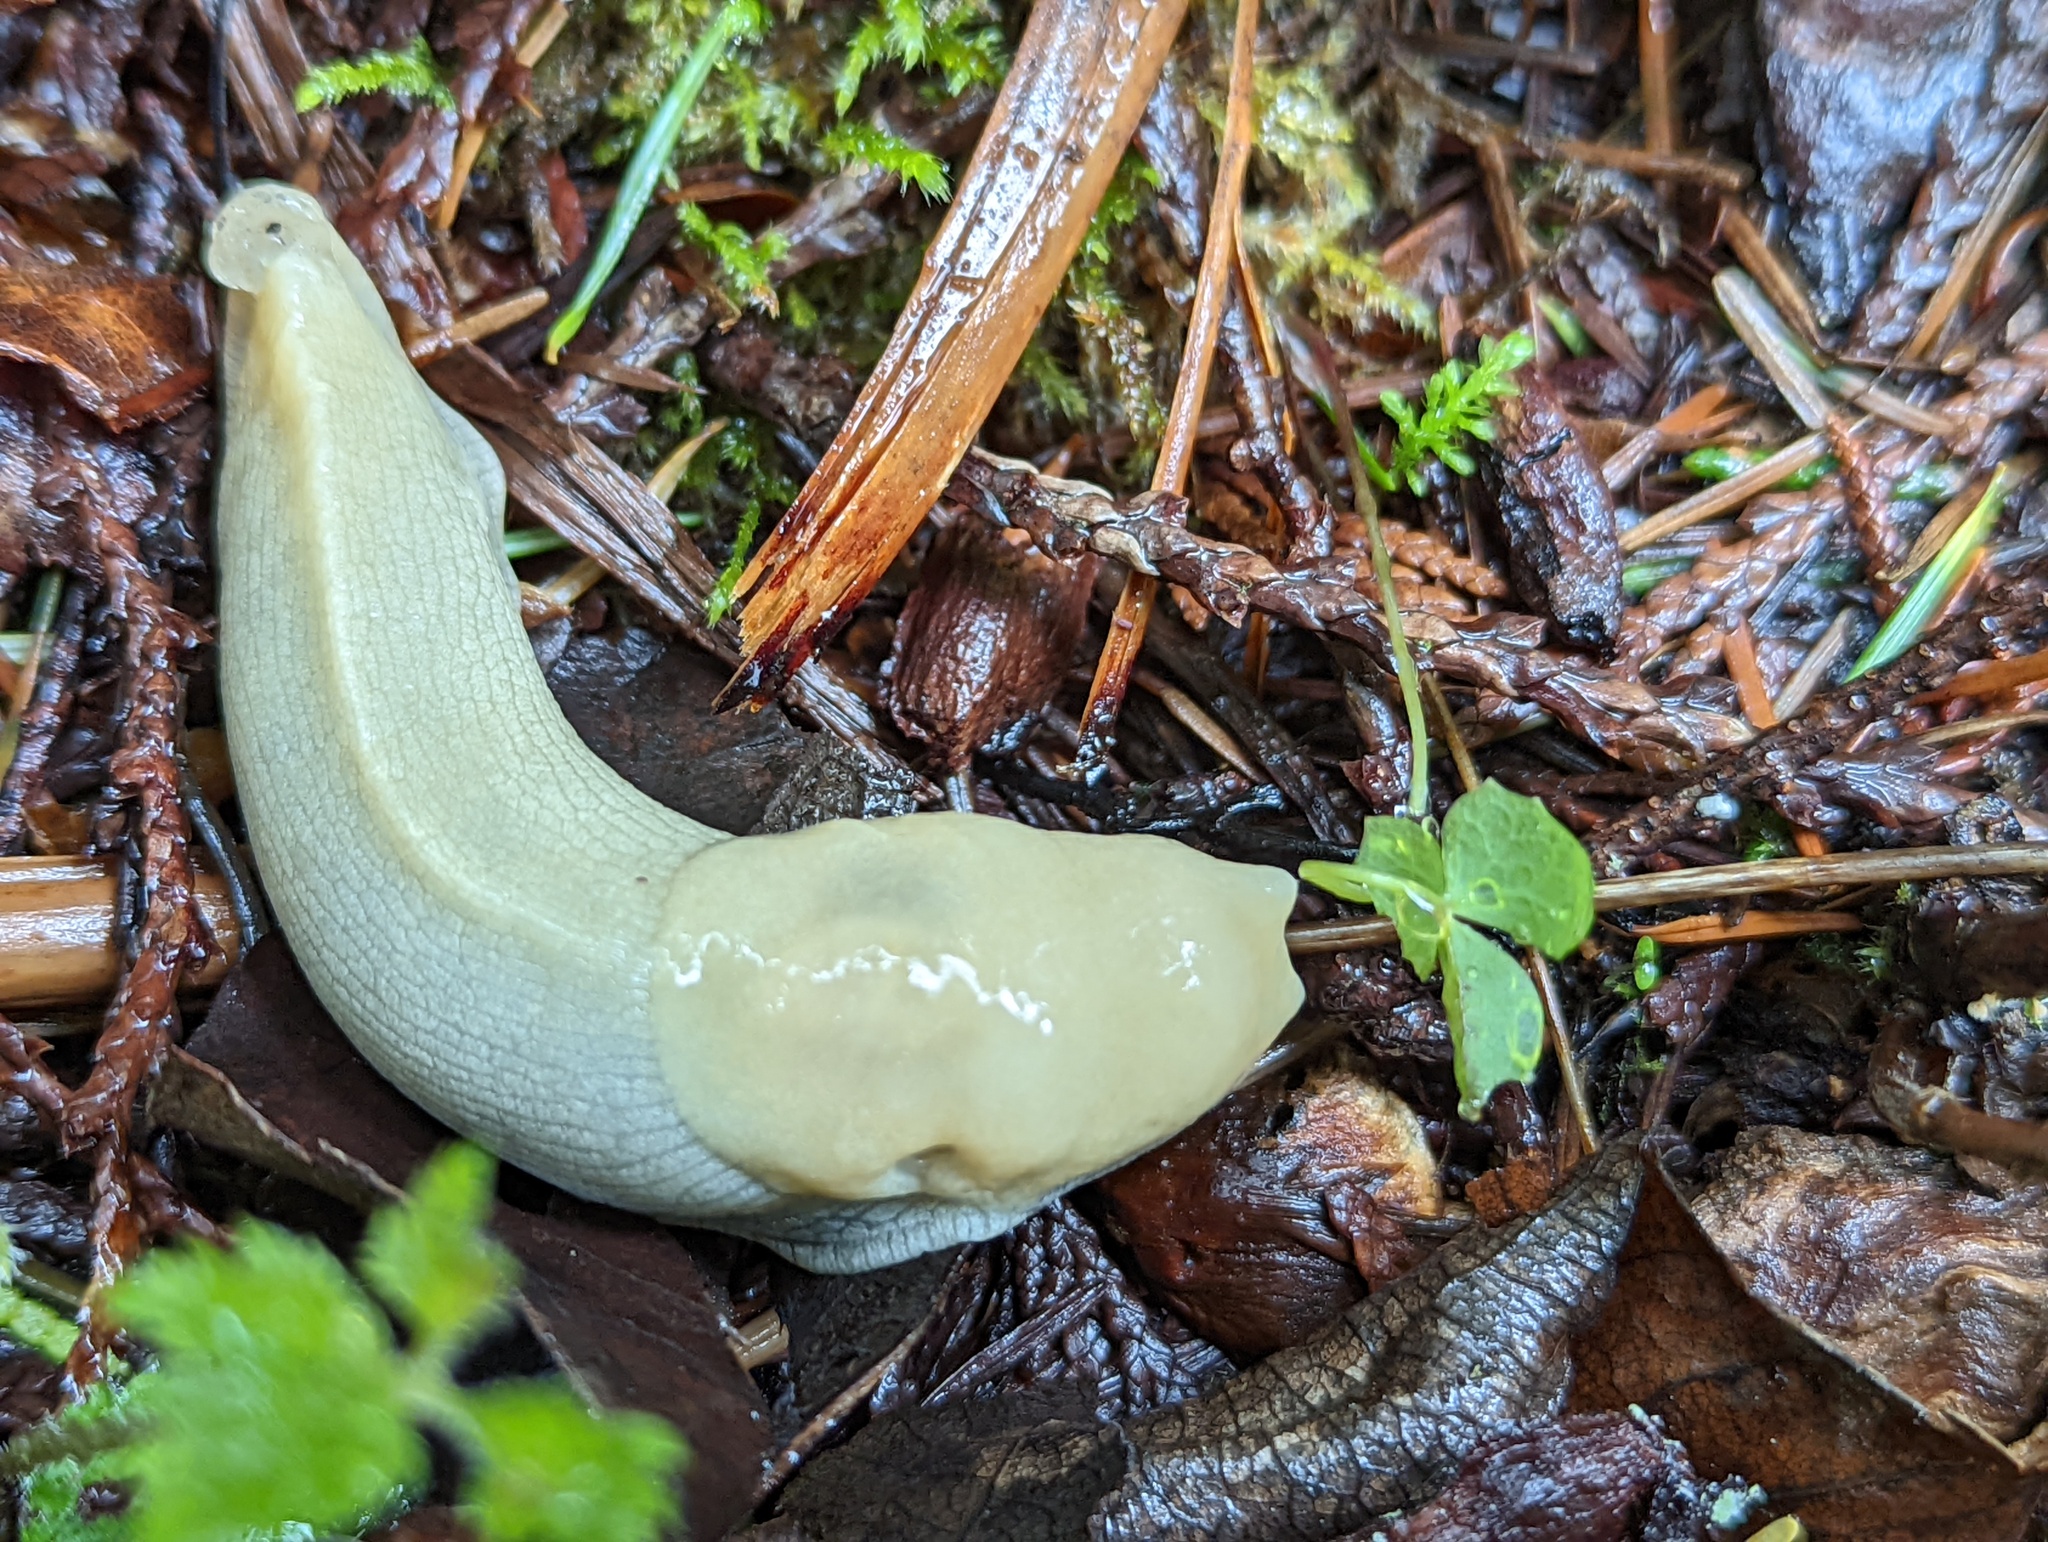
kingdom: Animalia
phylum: Mollusca
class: Gastropoda
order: Stylommatophora
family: Ariolimacidae
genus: Ariolimax
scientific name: Ariolimax columbianus
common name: Pacific banana slug
